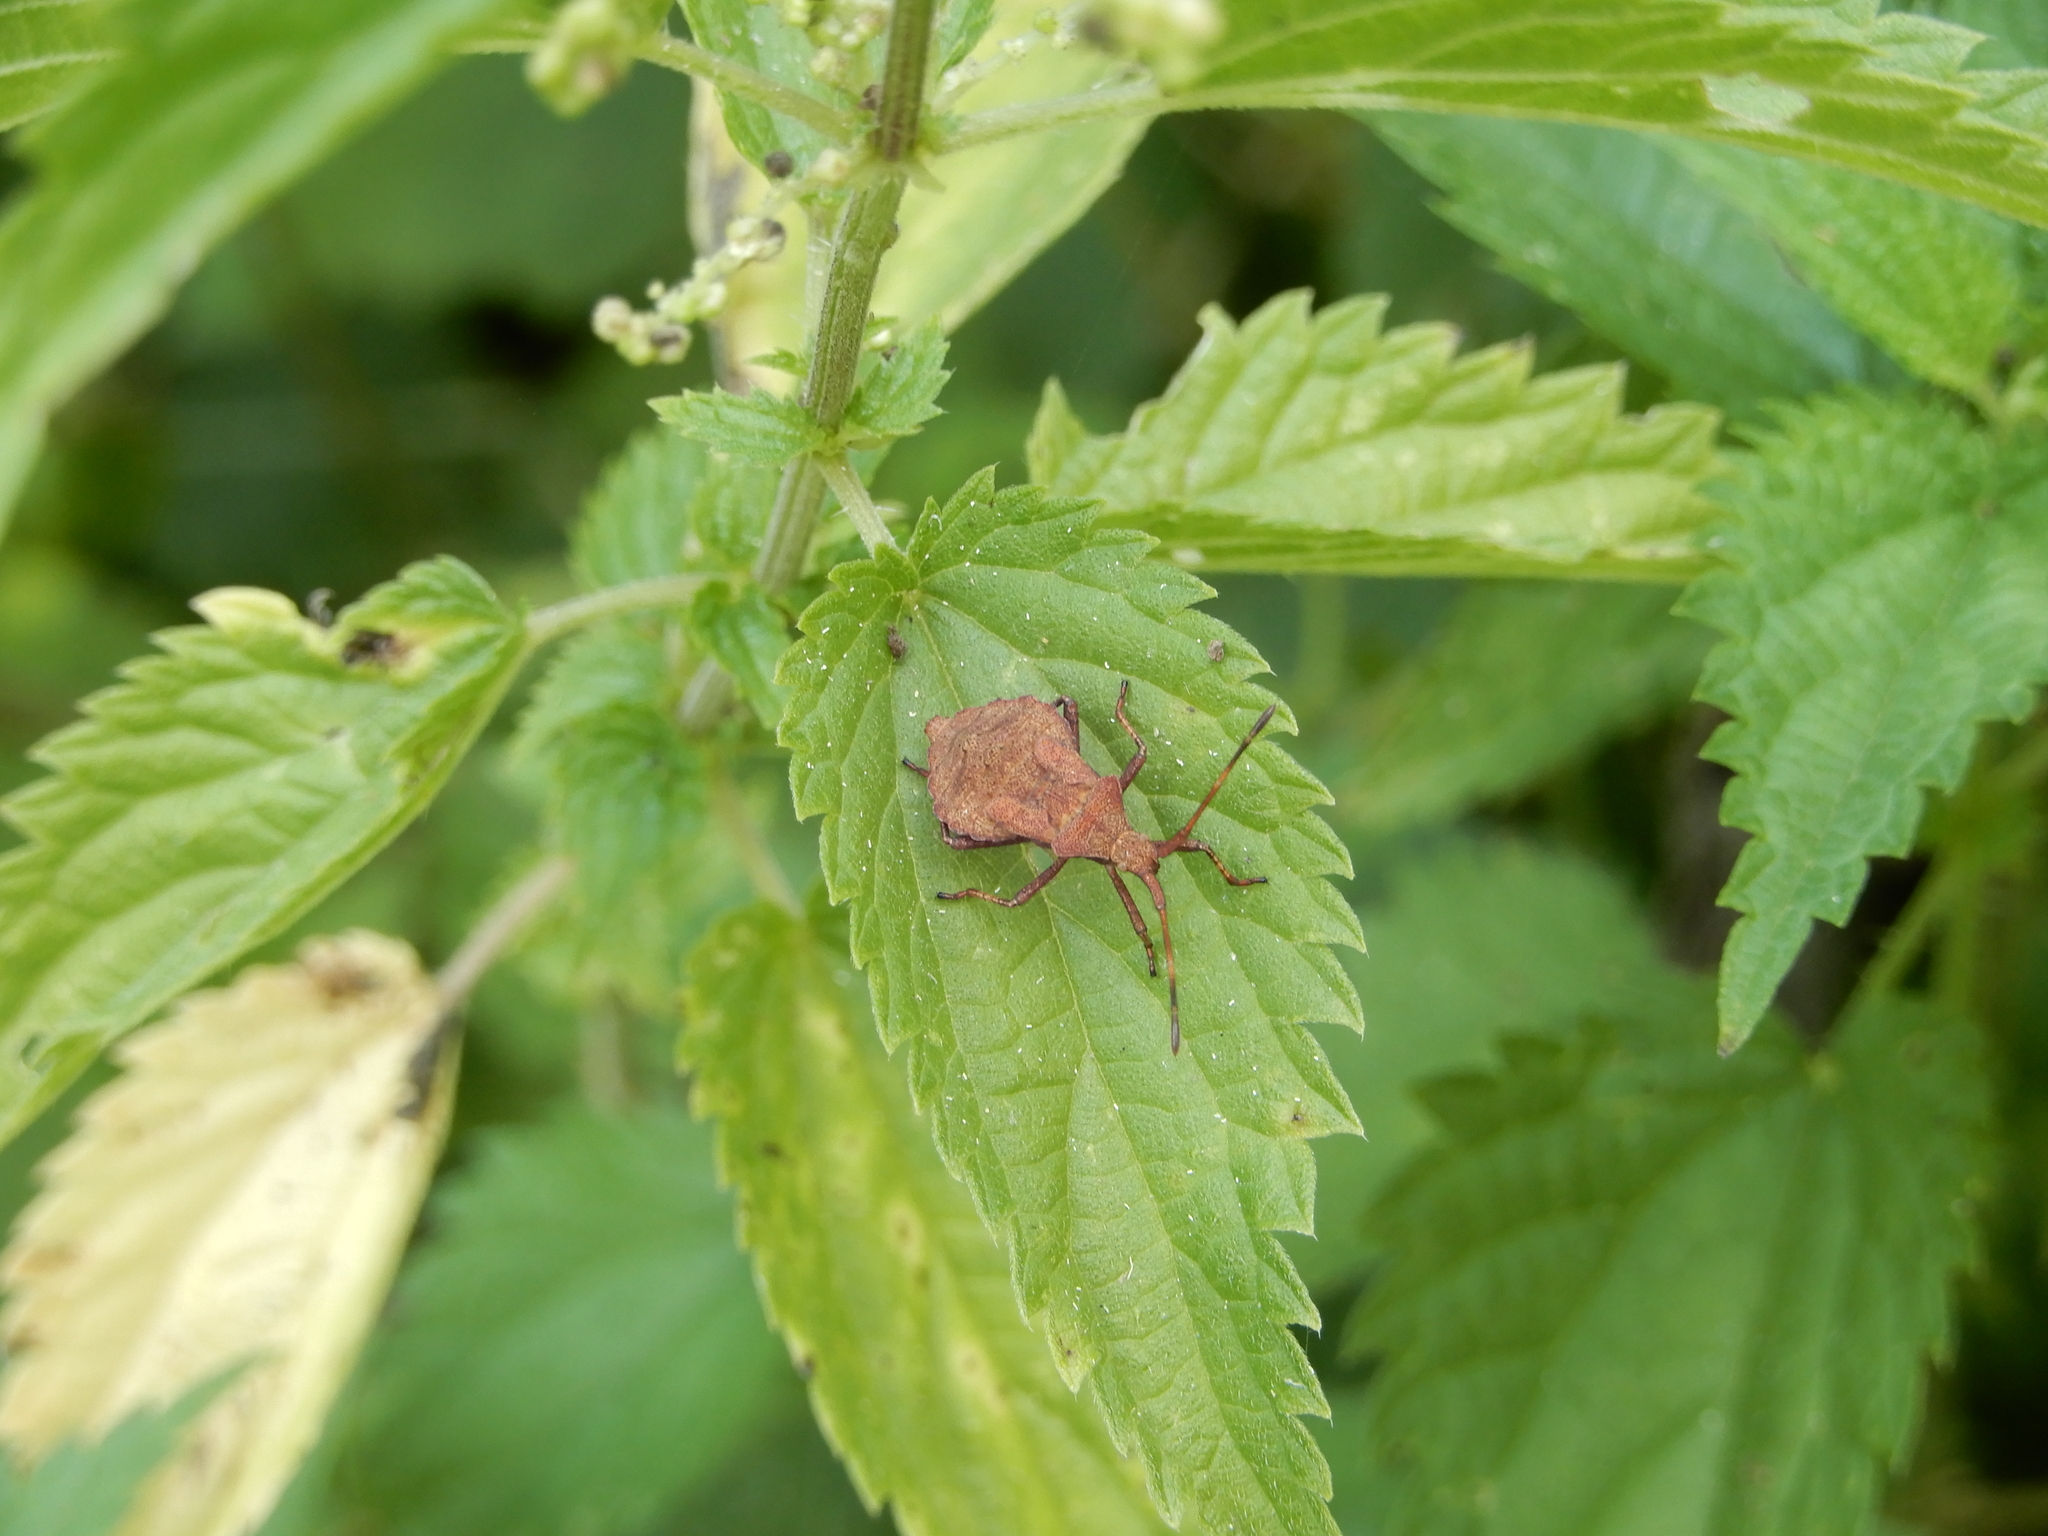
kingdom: Animalia
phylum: Arthropoda
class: Insecta
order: Hemiptera
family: Coreidae
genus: Coreus
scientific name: Coreus marginatus
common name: Dock bug
